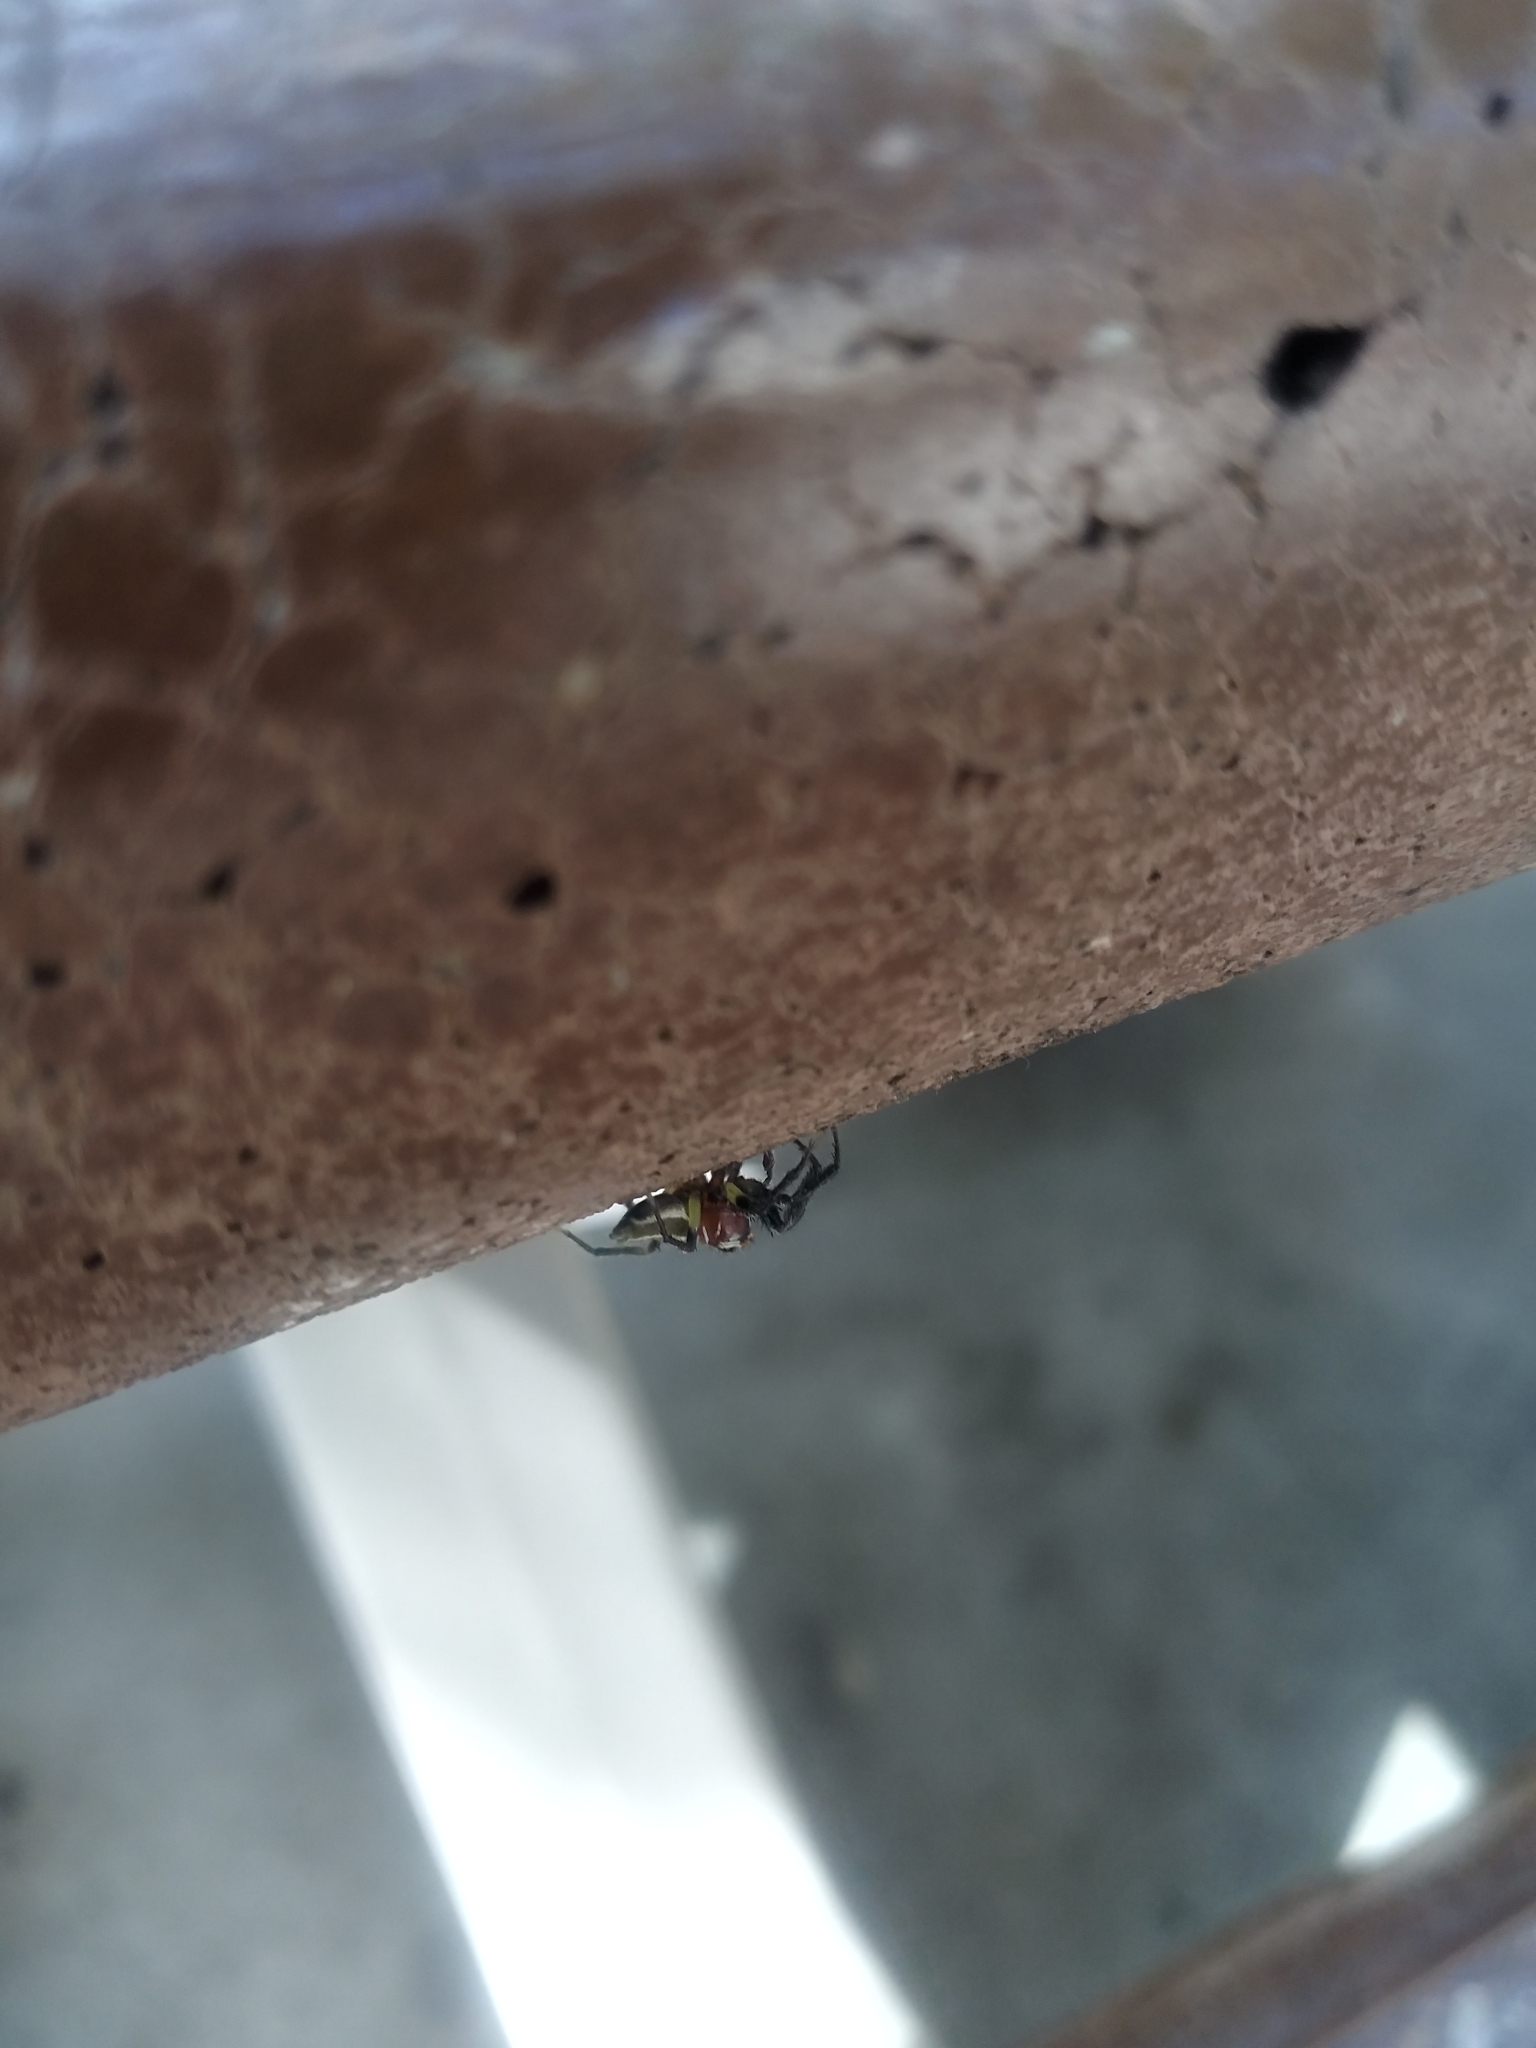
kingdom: Animalia
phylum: Arthropoda
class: Arachnida
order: Araneae
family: Salticidae
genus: Colonus
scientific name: Colonus sylvanus
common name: Jumping spiders
